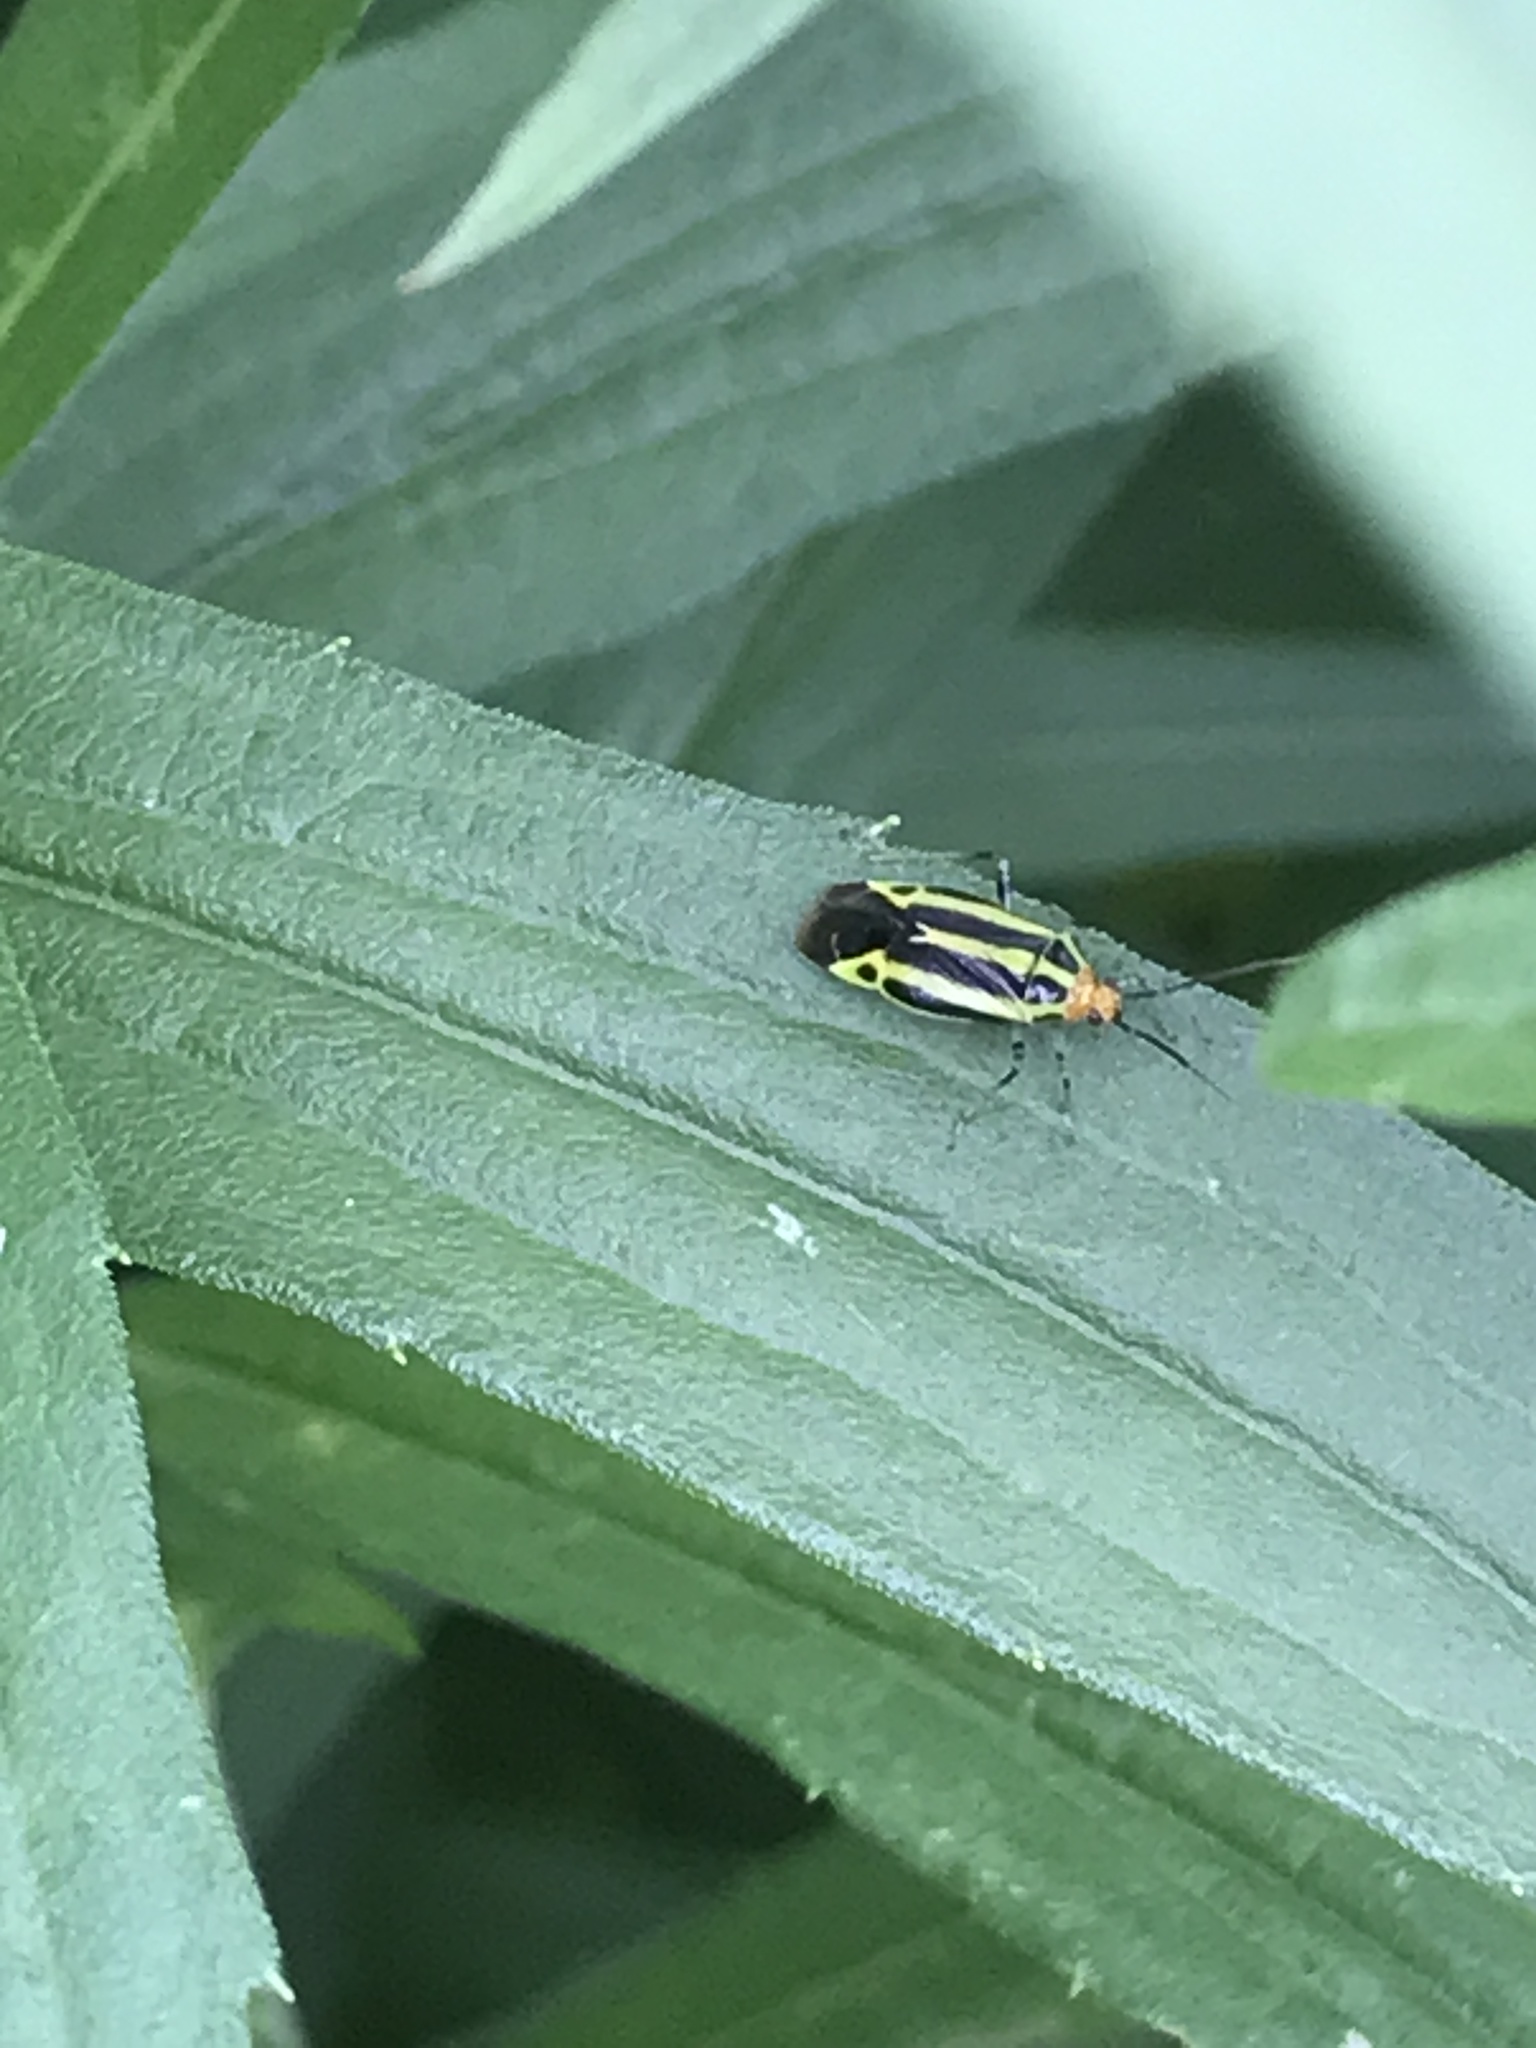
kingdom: Animalia
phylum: Arthropoda
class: Insecta
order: Hemiptera
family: Miridae
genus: Poecilocapsus
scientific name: Poecilocapsus lineatus
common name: Four-lined plant bug
